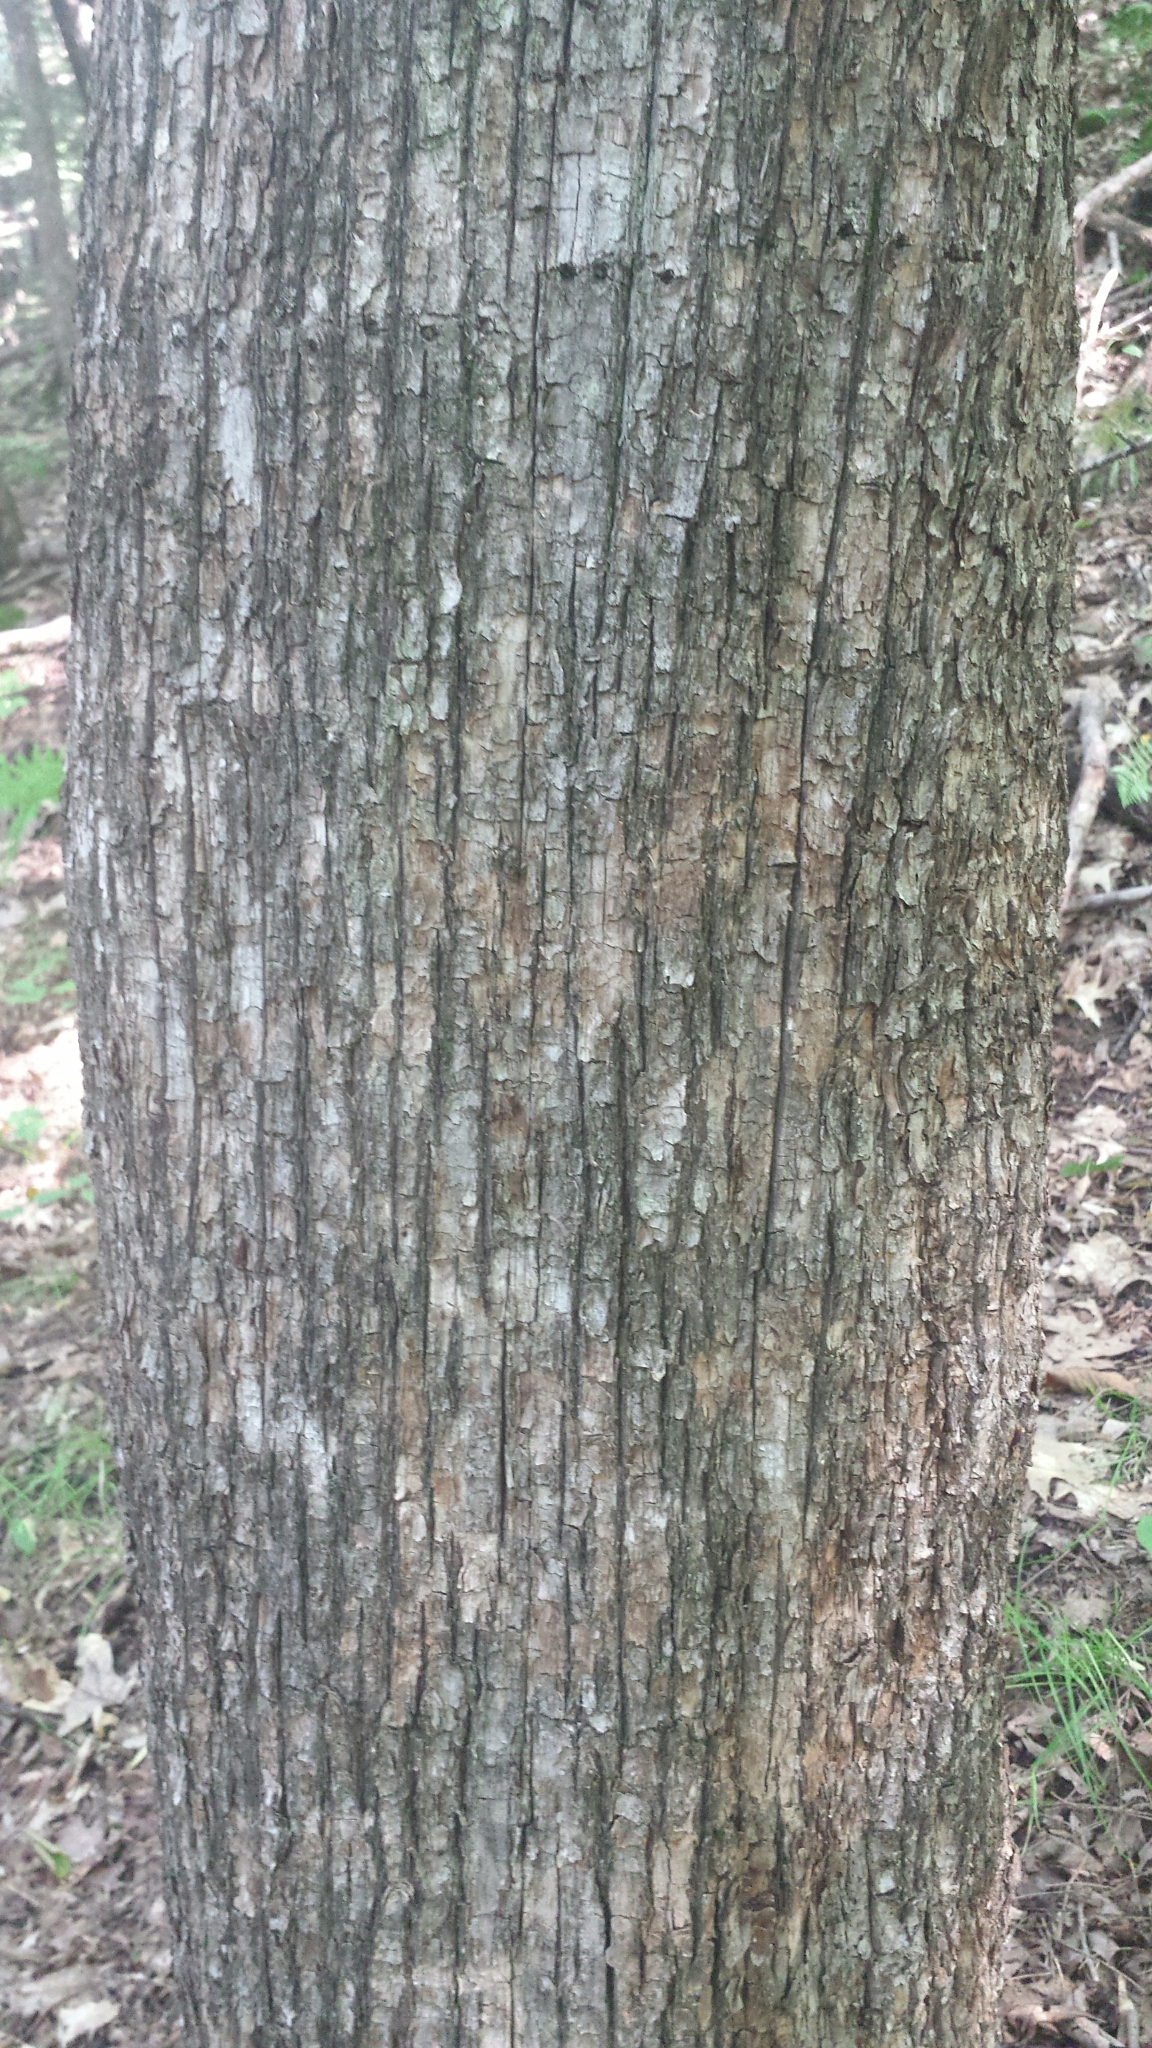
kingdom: Plantae
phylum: Tracheophyta
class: Magnoliopsida
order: Fagales
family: Betulaceae
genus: Ostrya
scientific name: Ostrya virginiana
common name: Ironwood
